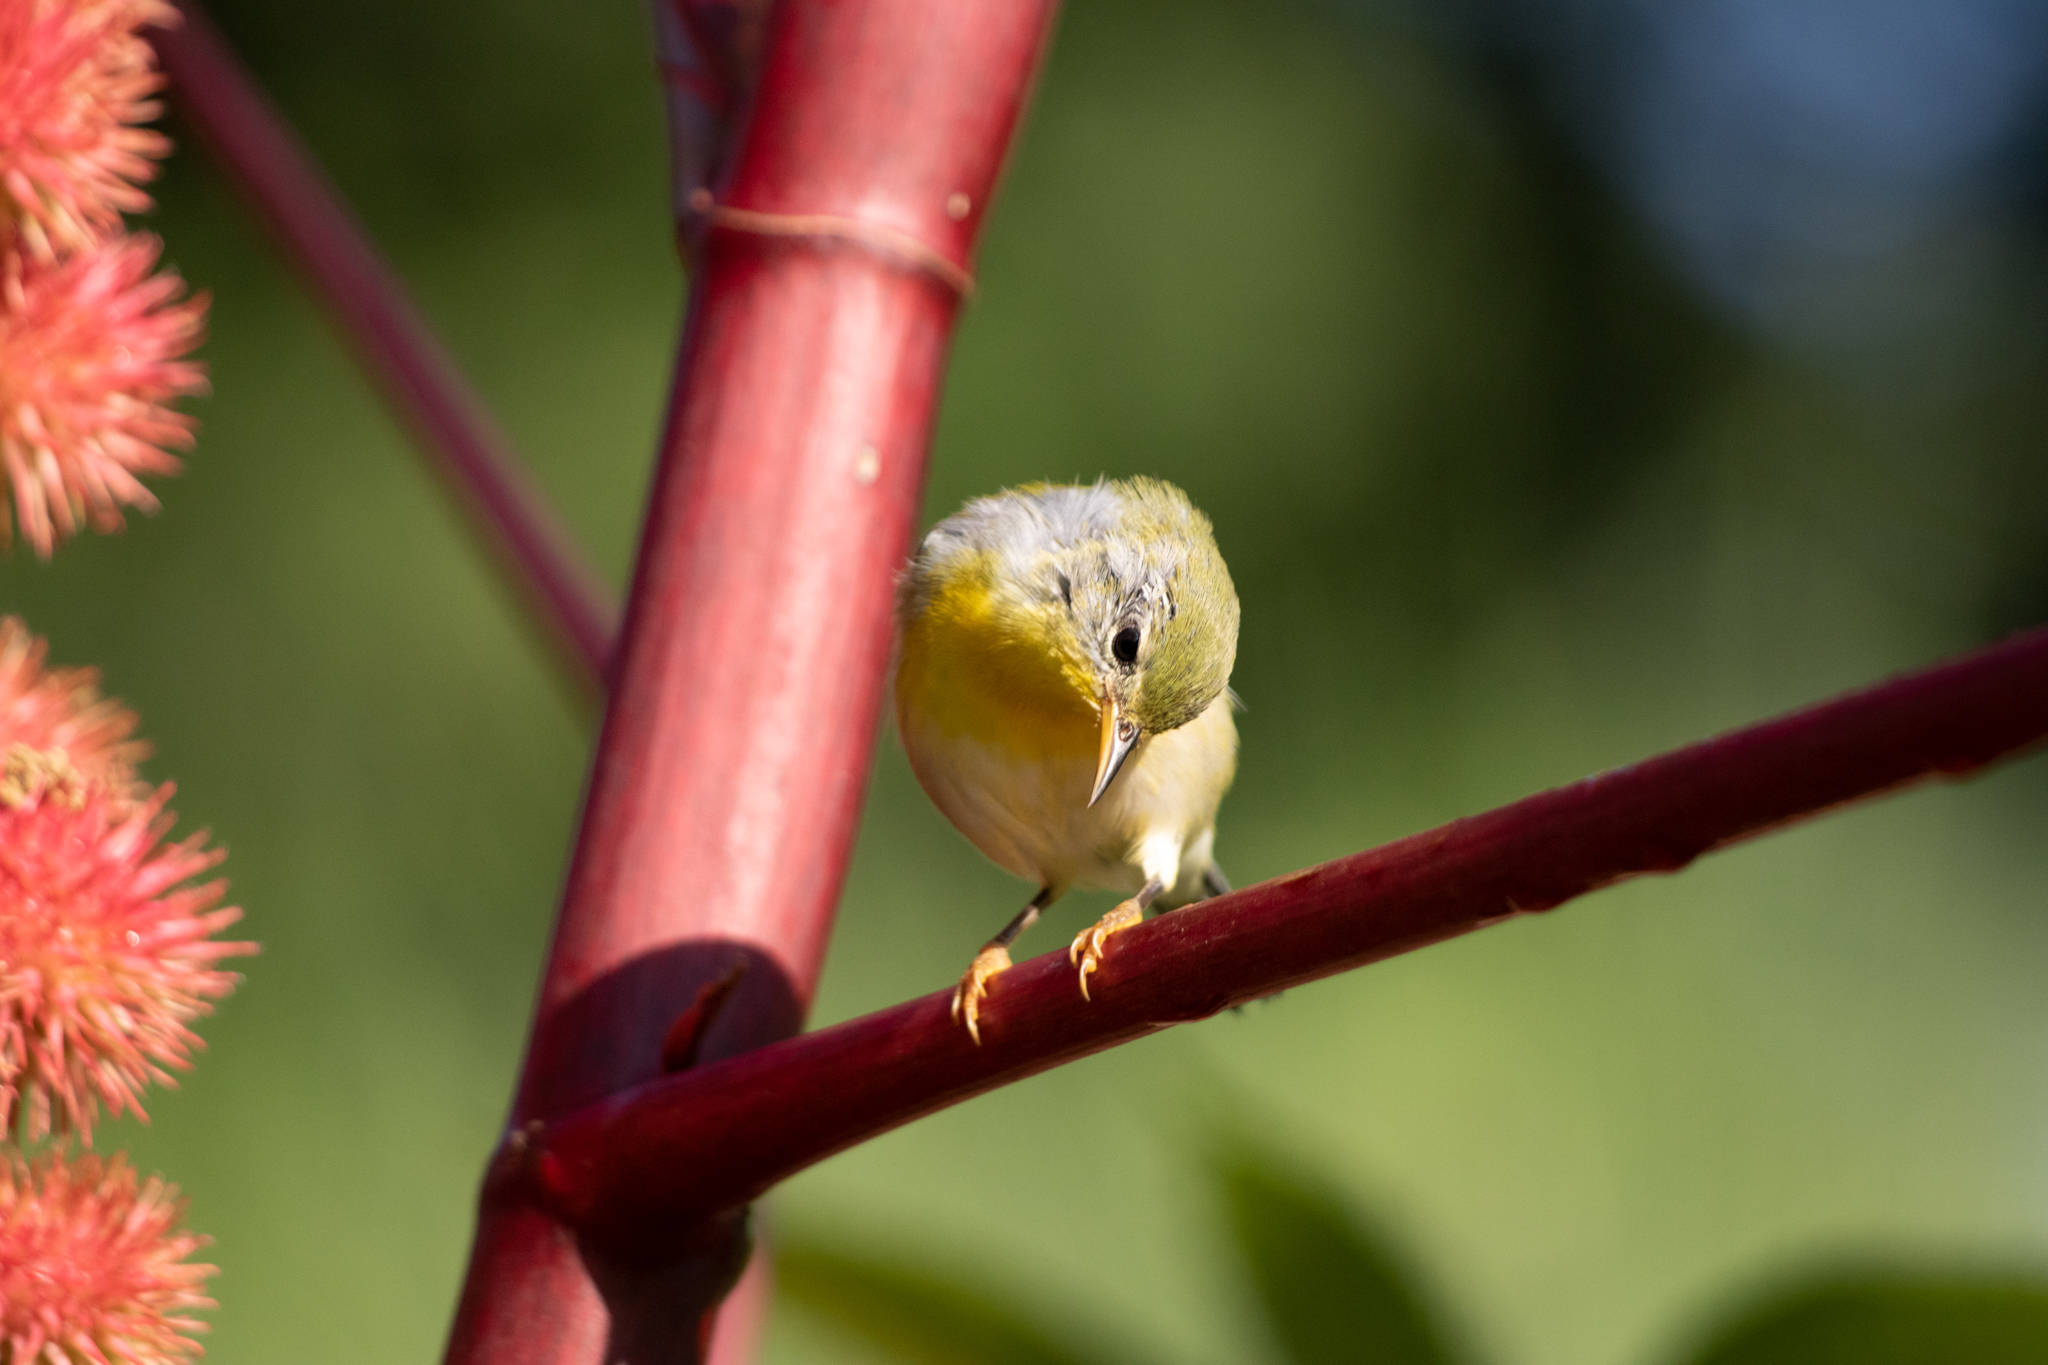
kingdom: Animalia
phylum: Chordata
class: Aves
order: Passeriformes
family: Parulidae
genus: Setophaga
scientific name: Setophaga americana
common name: Northern parula
